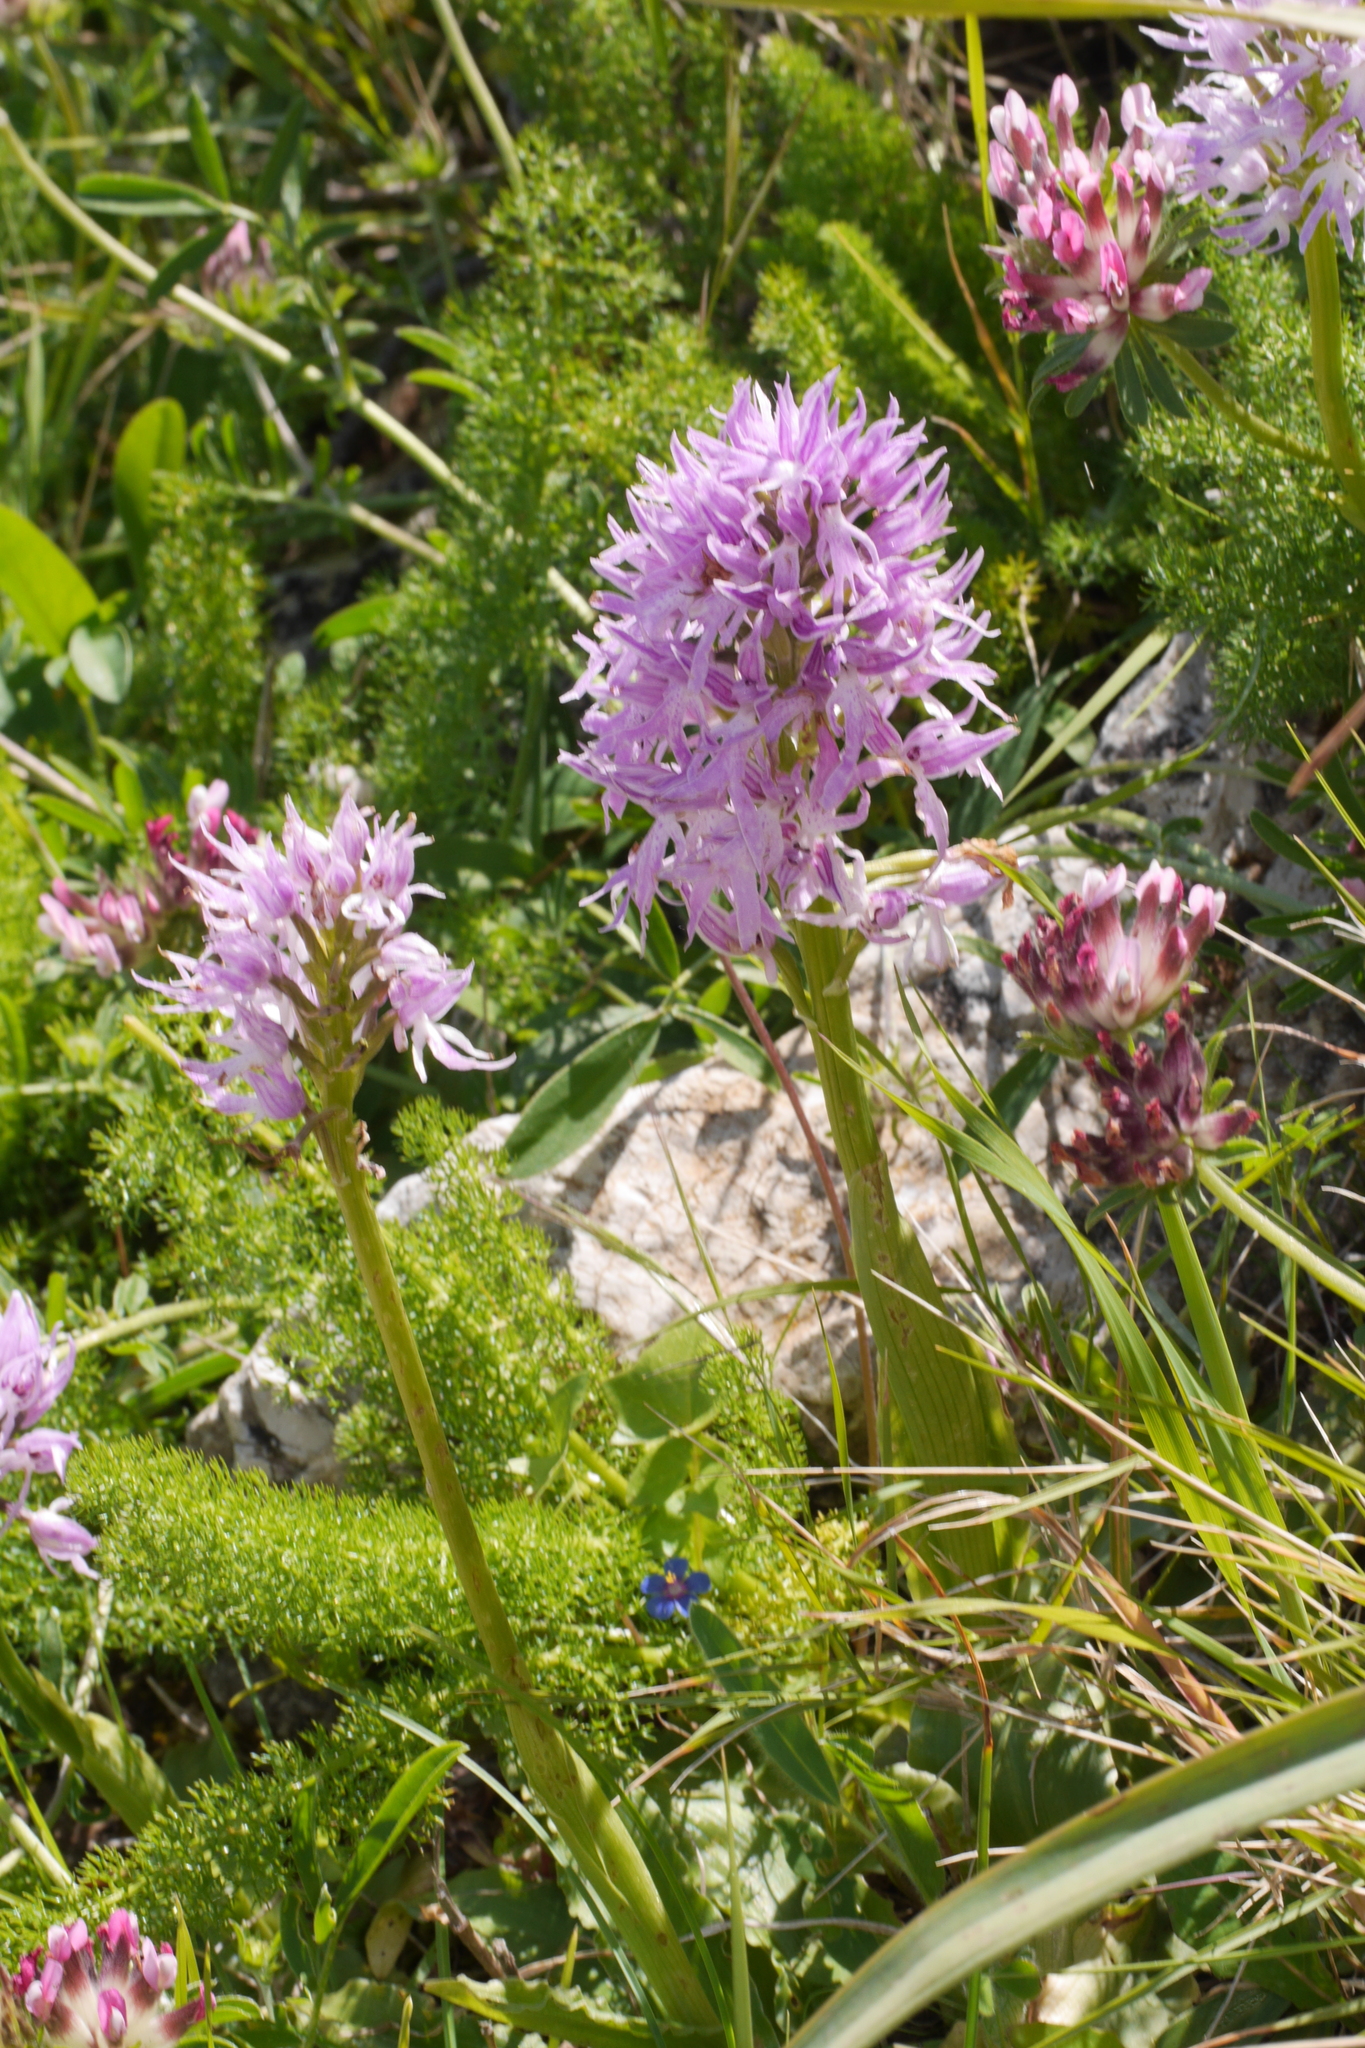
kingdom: Plantae
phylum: Tracheophyta
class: Liliopsida
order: Asparagales
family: Orchidaceae
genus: Orchis
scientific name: Orchis italica
